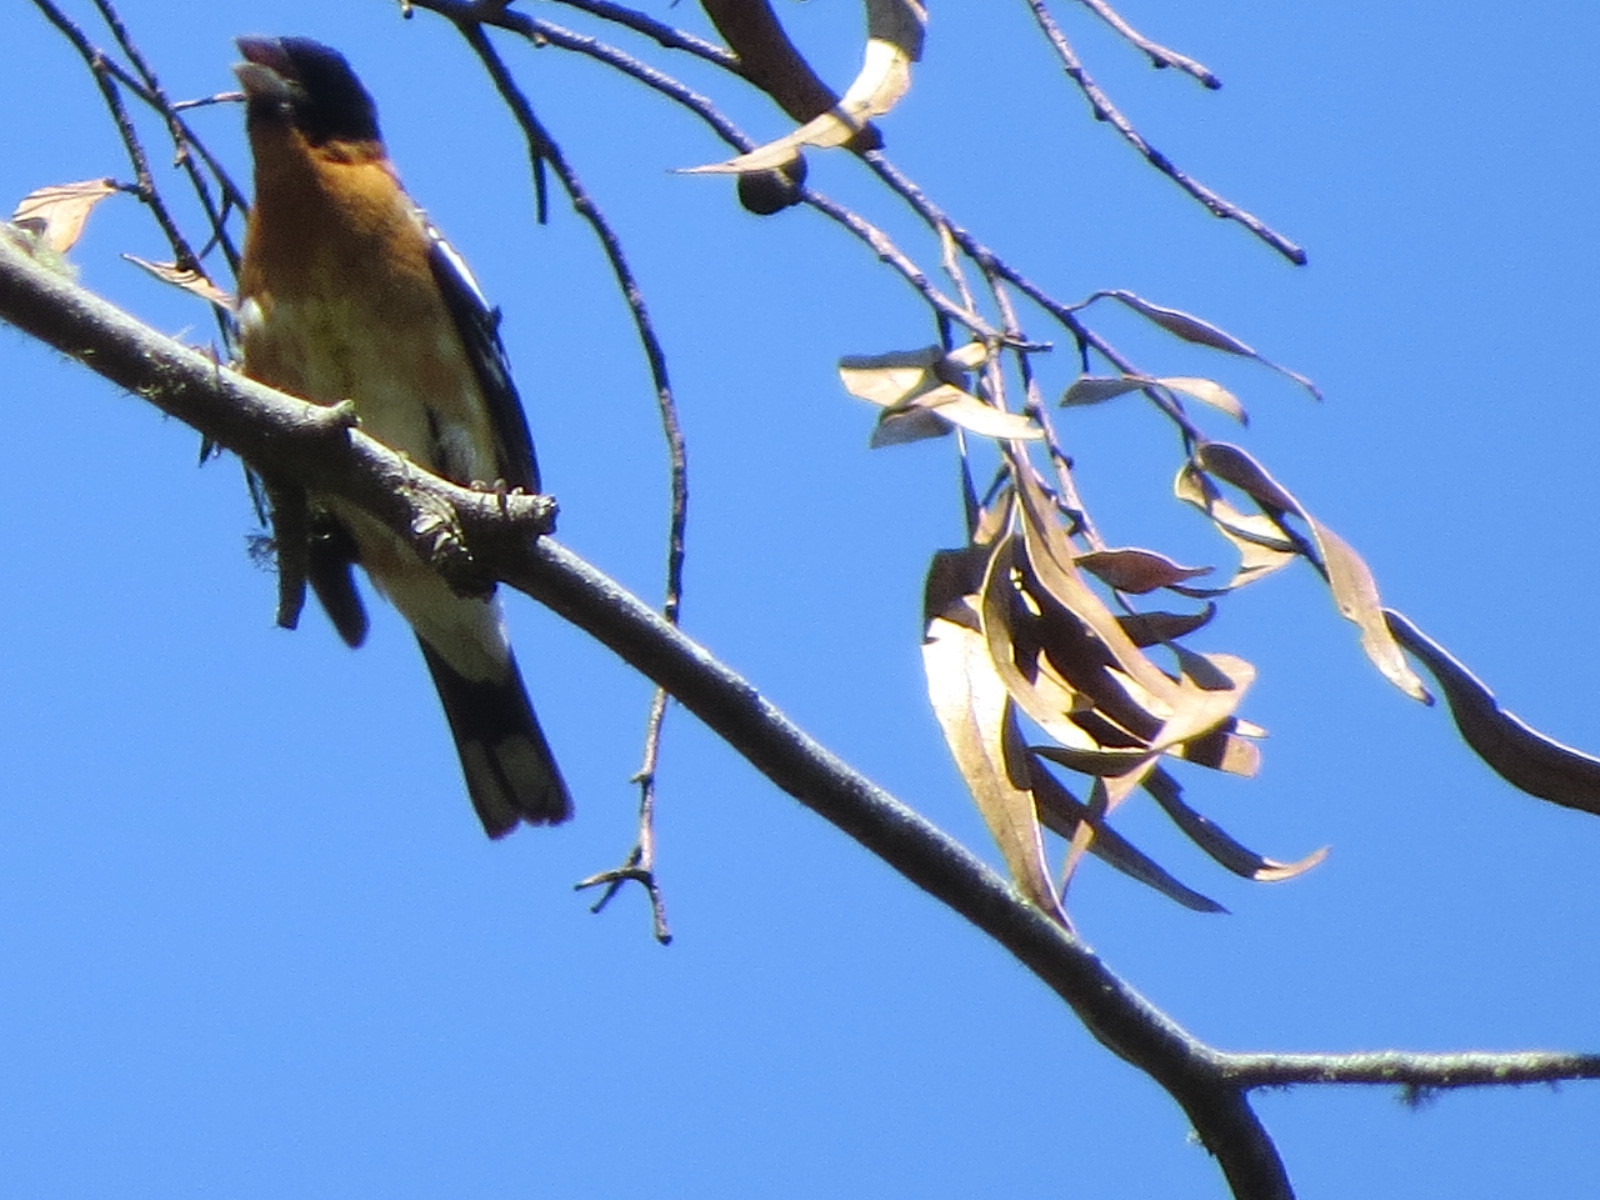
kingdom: Animalia
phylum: Chordata
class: Aves
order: Passeriformes
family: Cardinalidae
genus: Pheucticus
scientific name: Pheucticus melanocephalus
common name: Black-headed grosbeak
